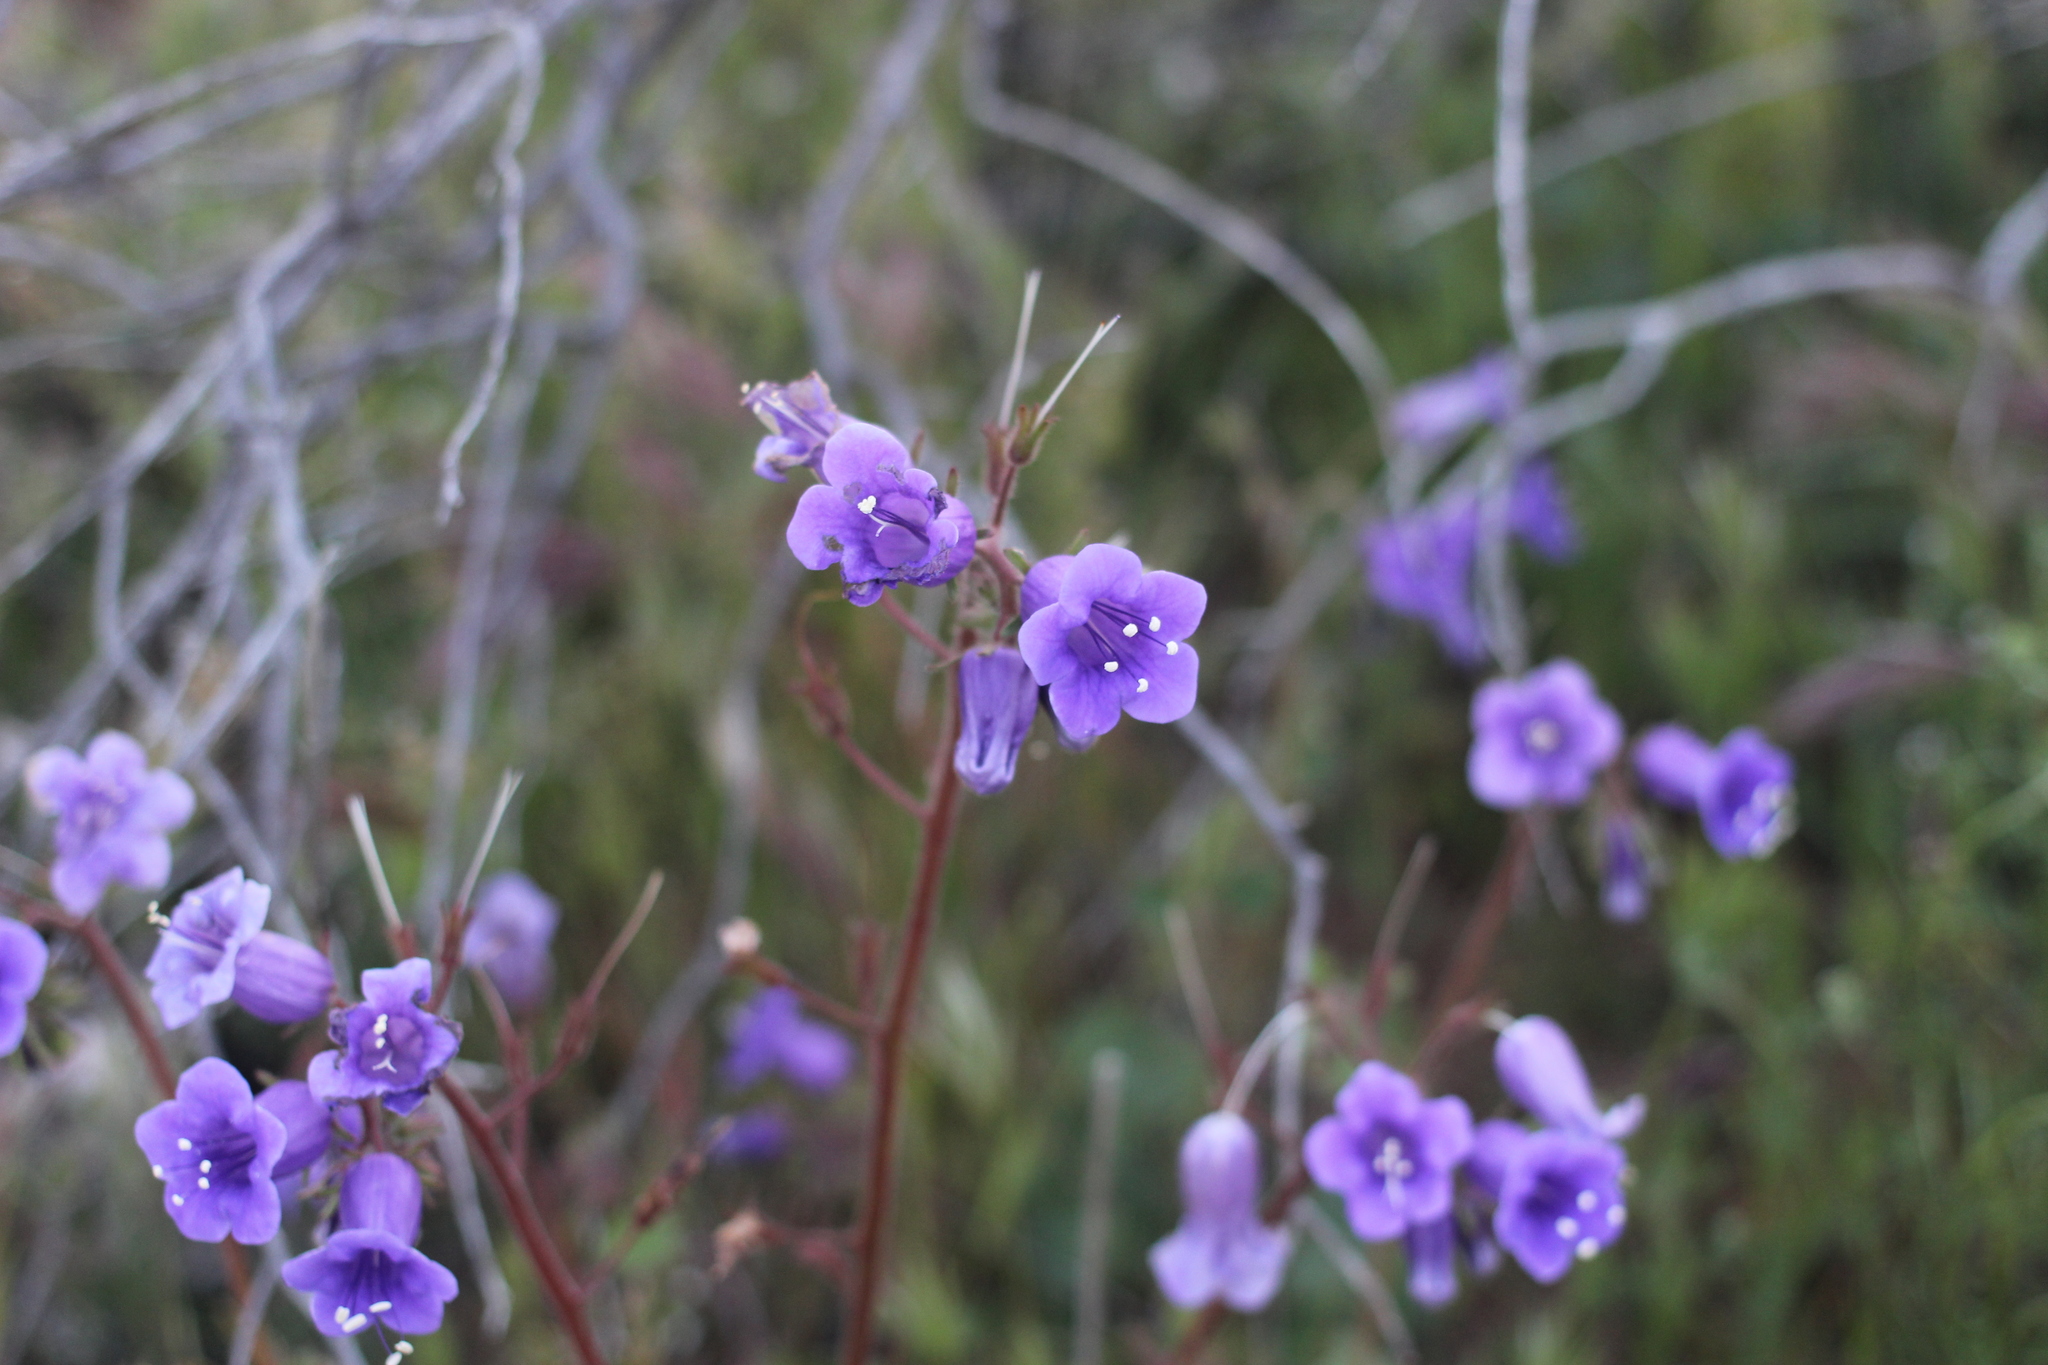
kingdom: Plantae
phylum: Tracheophyta
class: Magnoliopsida
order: Boraginales
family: Hydrophyllaceae
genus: Phacelia
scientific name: Phacelia minor
